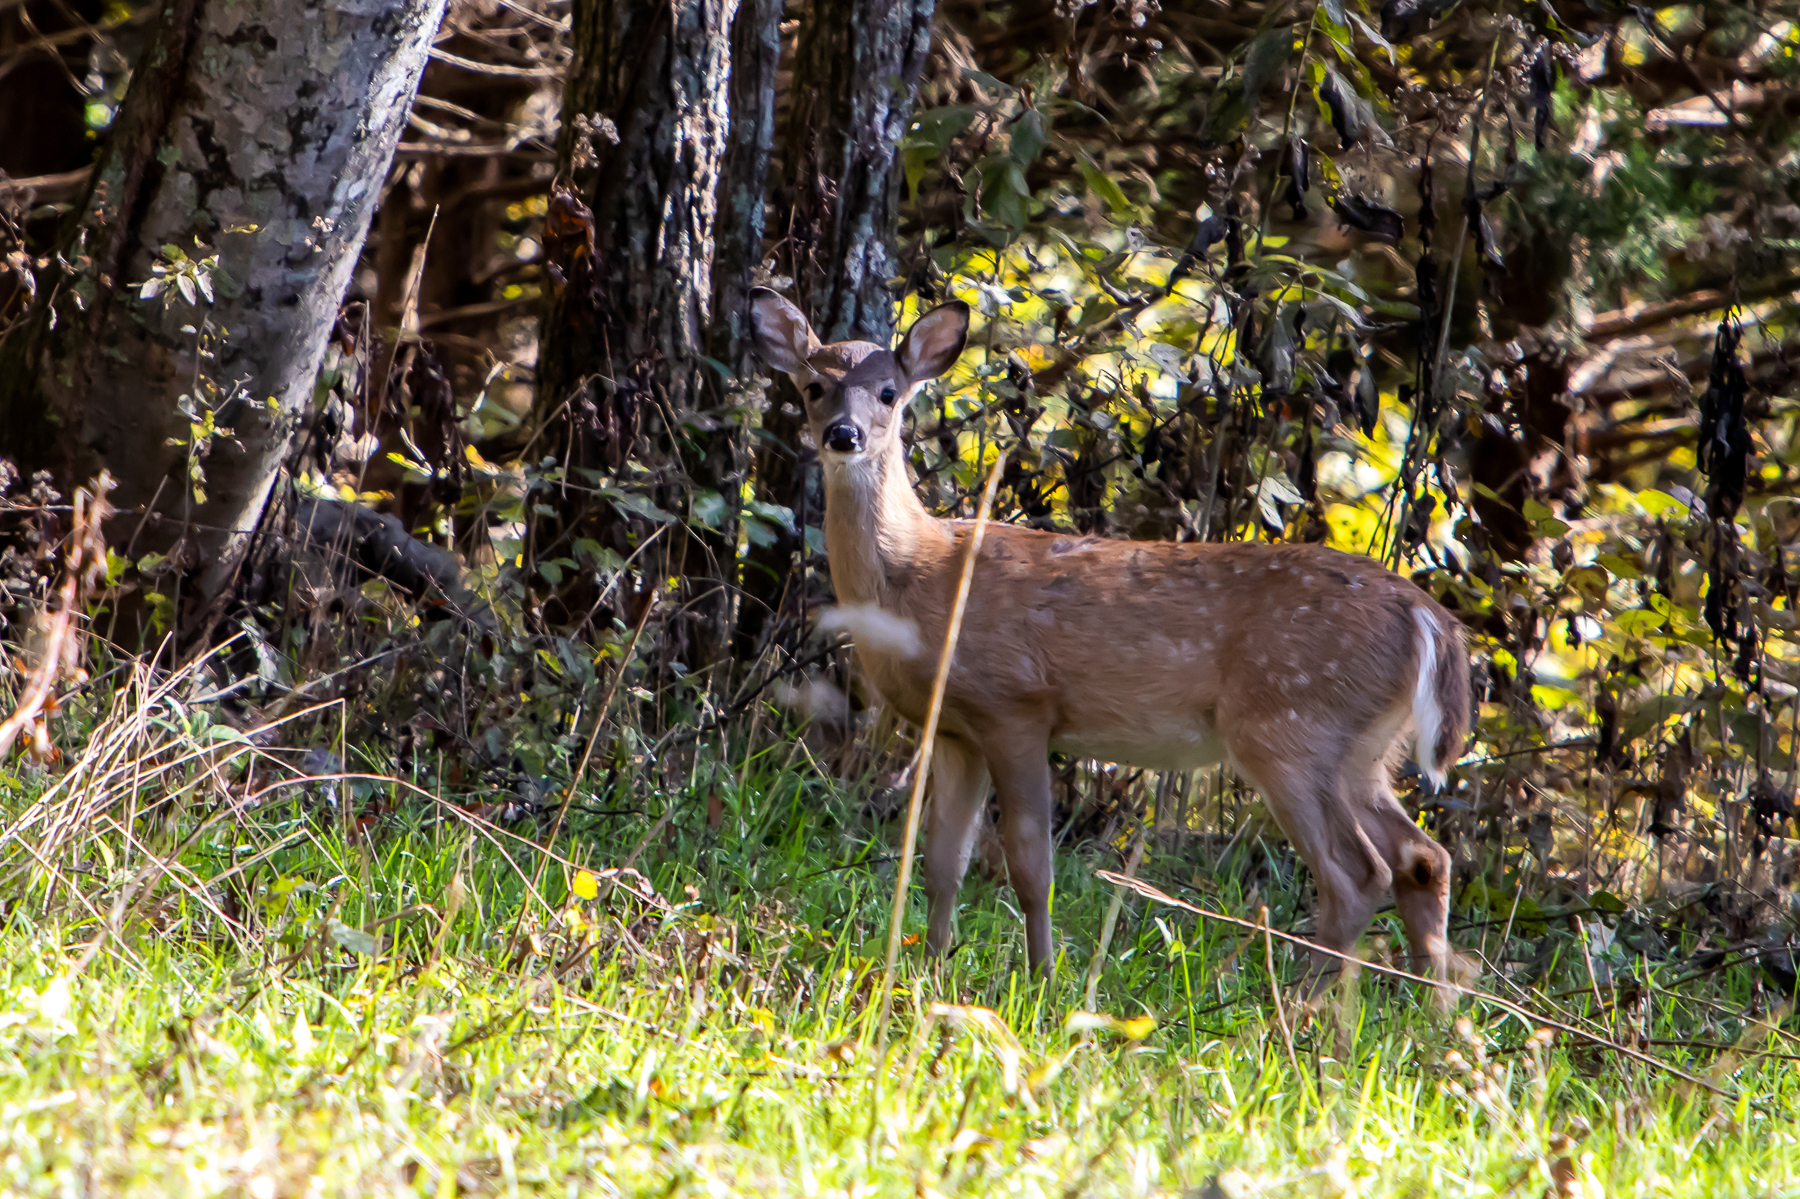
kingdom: Animalia
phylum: Chordata
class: Mammalia
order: Artiodactyla
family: Cervidae
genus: Odocoileus
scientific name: Odocoileus virginianus
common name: White-tailed deer
